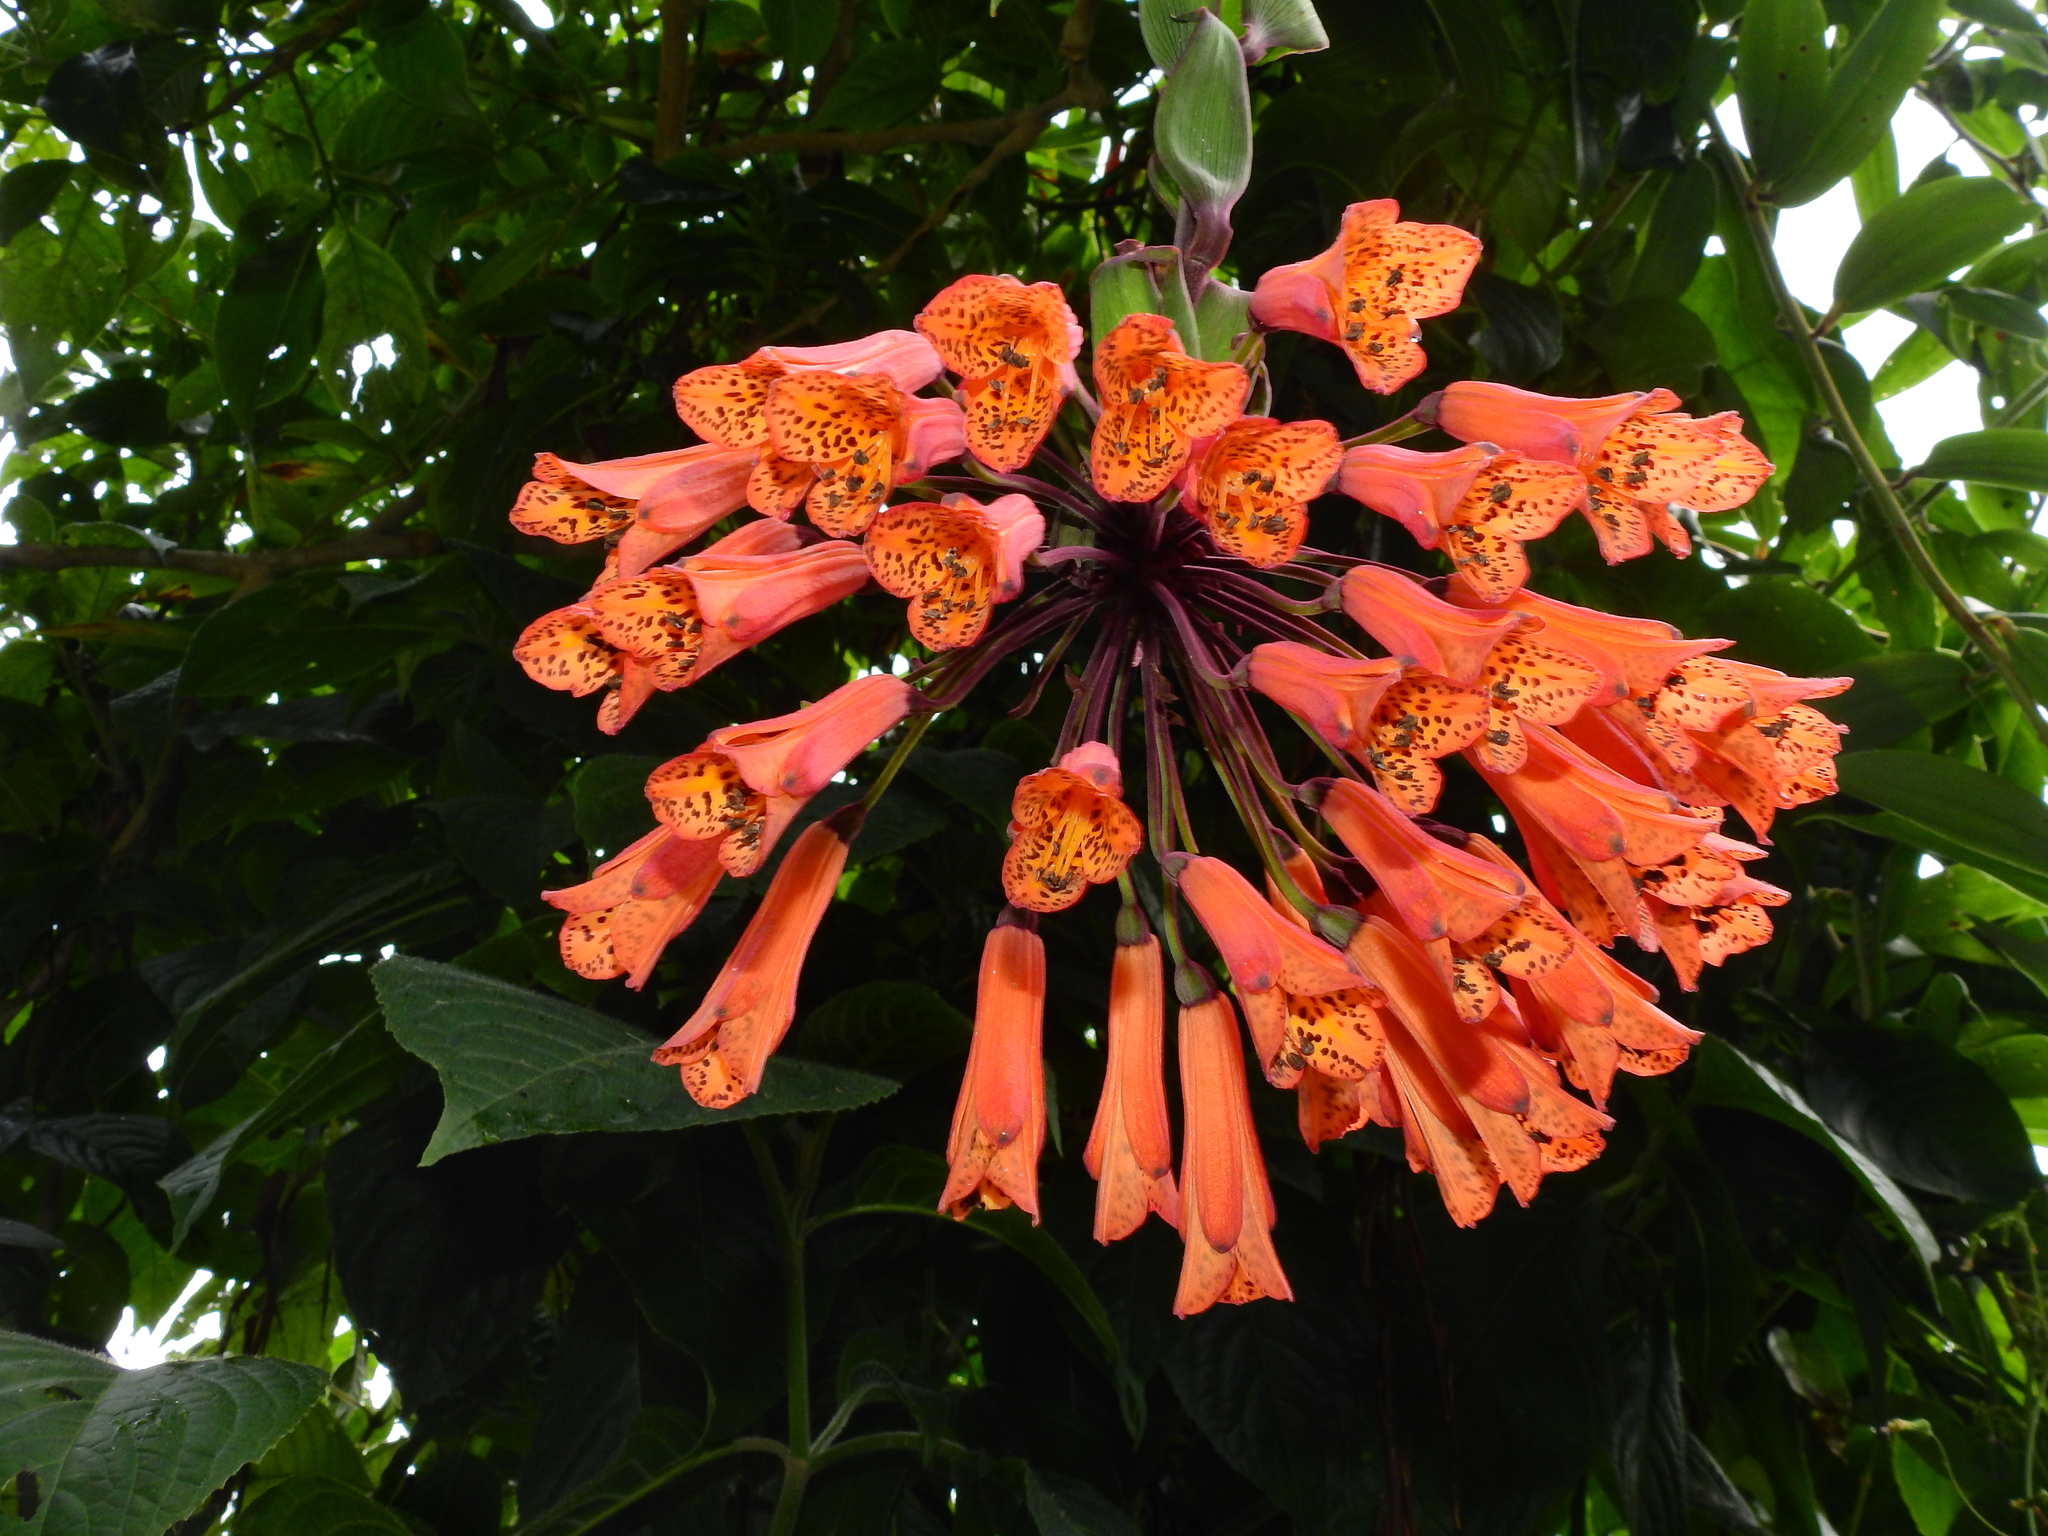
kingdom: Plantae
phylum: Tracheophyta
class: Liliopsida
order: Liliales
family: Alstroemeriaceae
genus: Bomarea
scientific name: Bomarea multiflora
